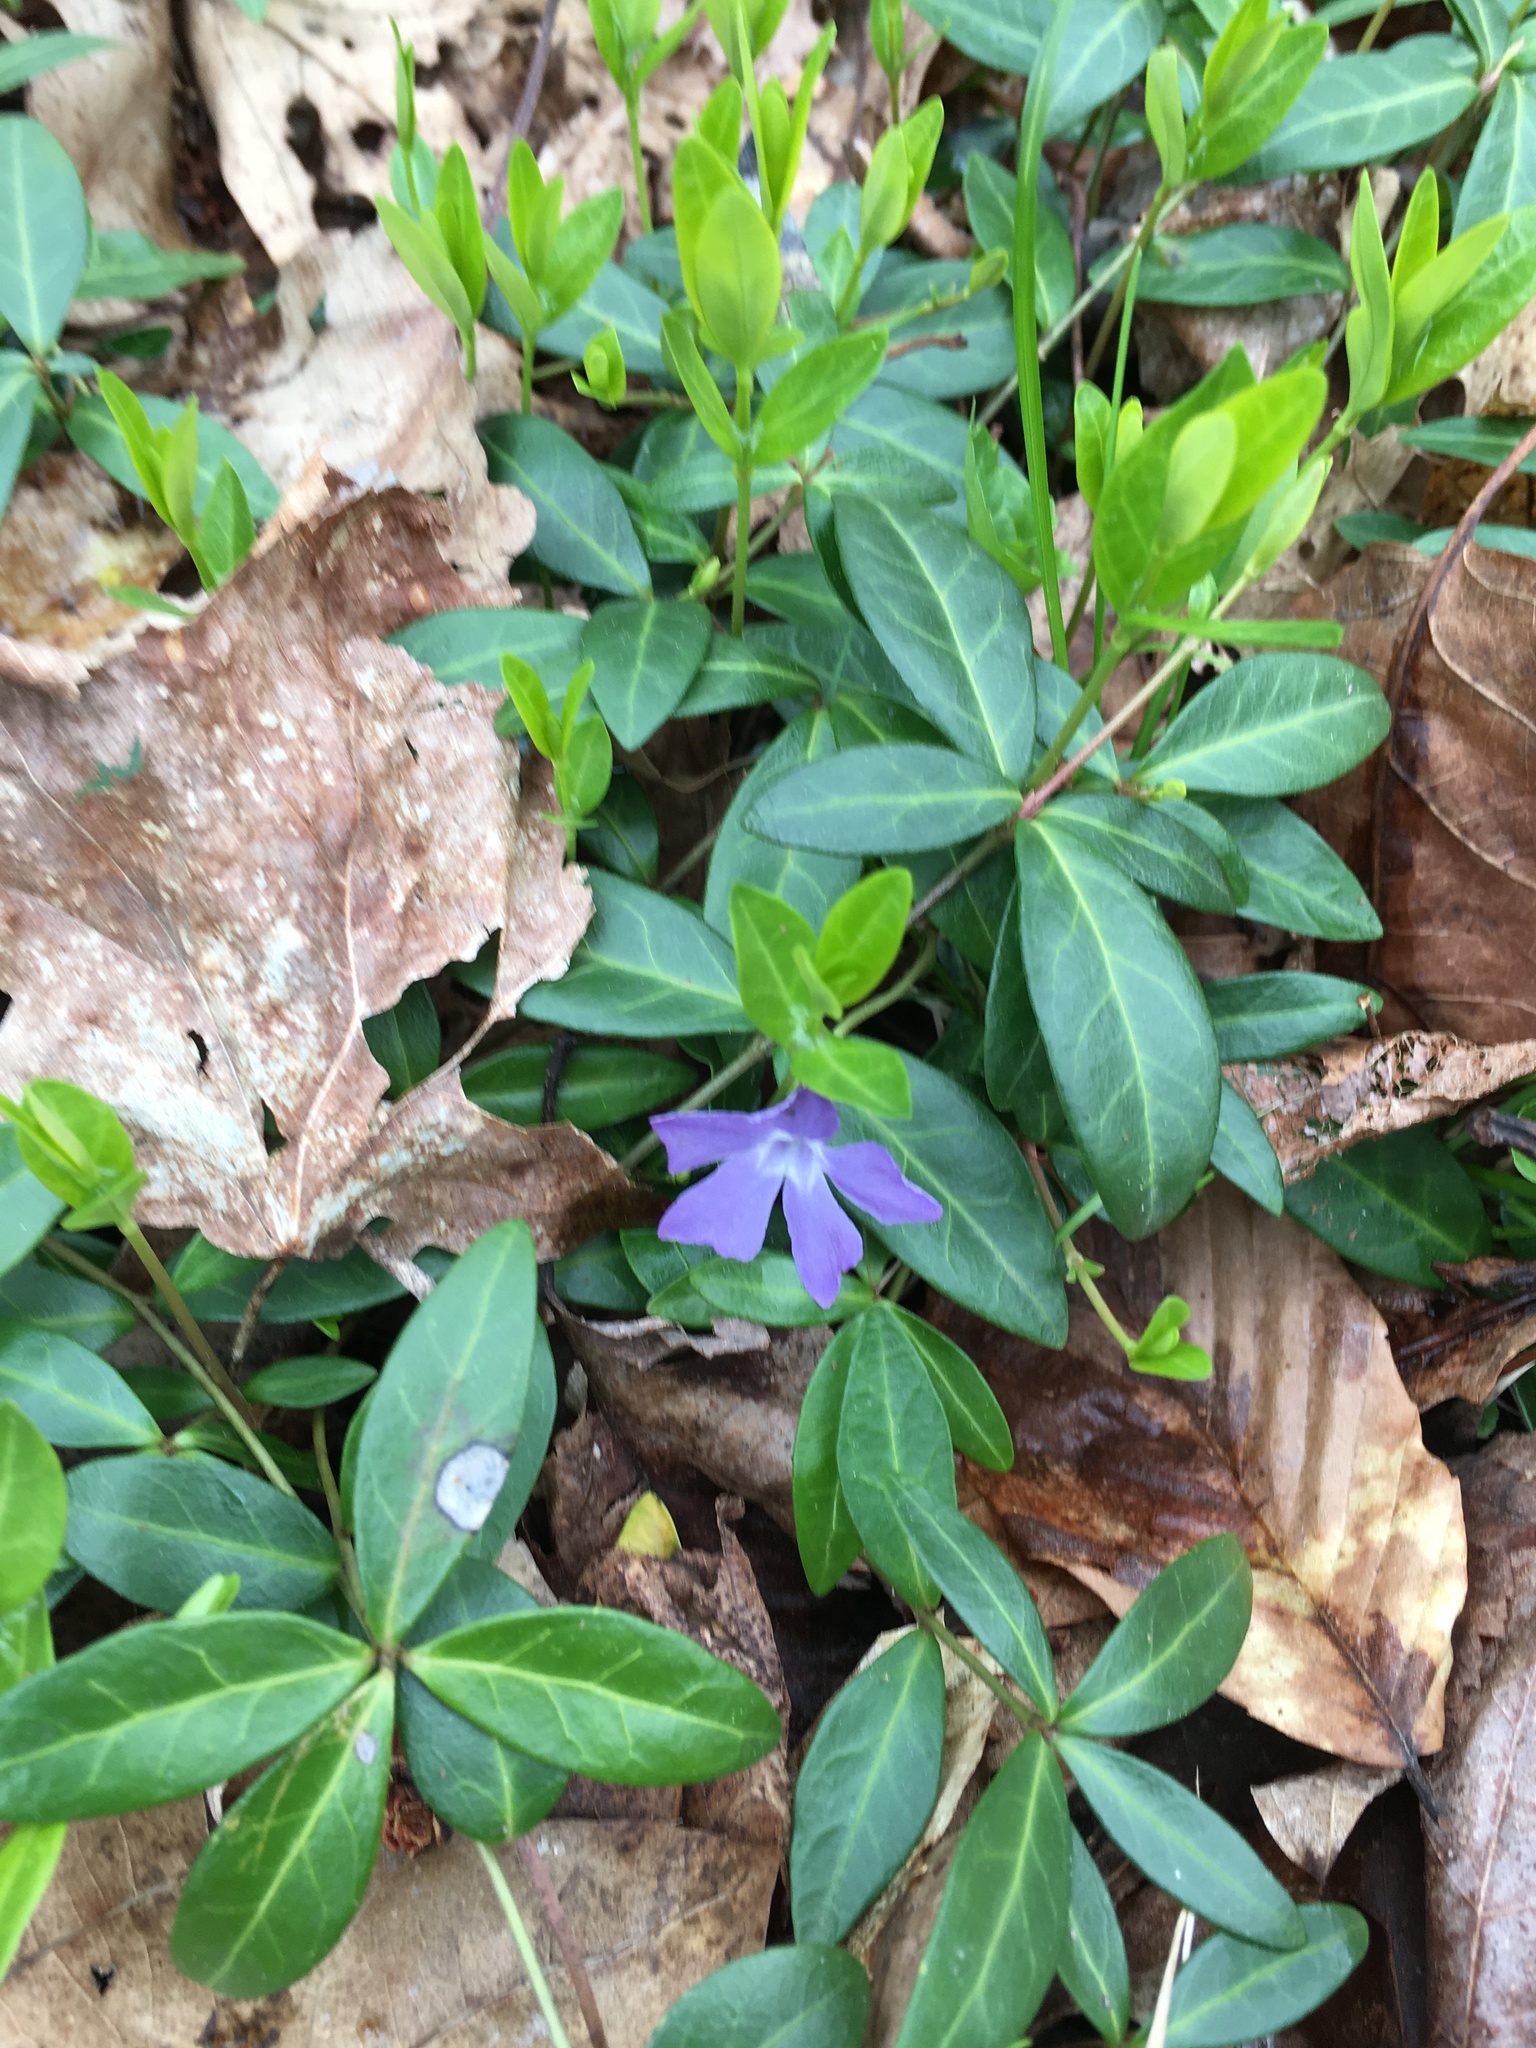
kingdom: Plantae
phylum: Tracheophyta
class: Magnoliopsida
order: Gentianales
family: Apocynaceae
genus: Vinca
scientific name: Vinca minor
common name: Lesser periwinkle
